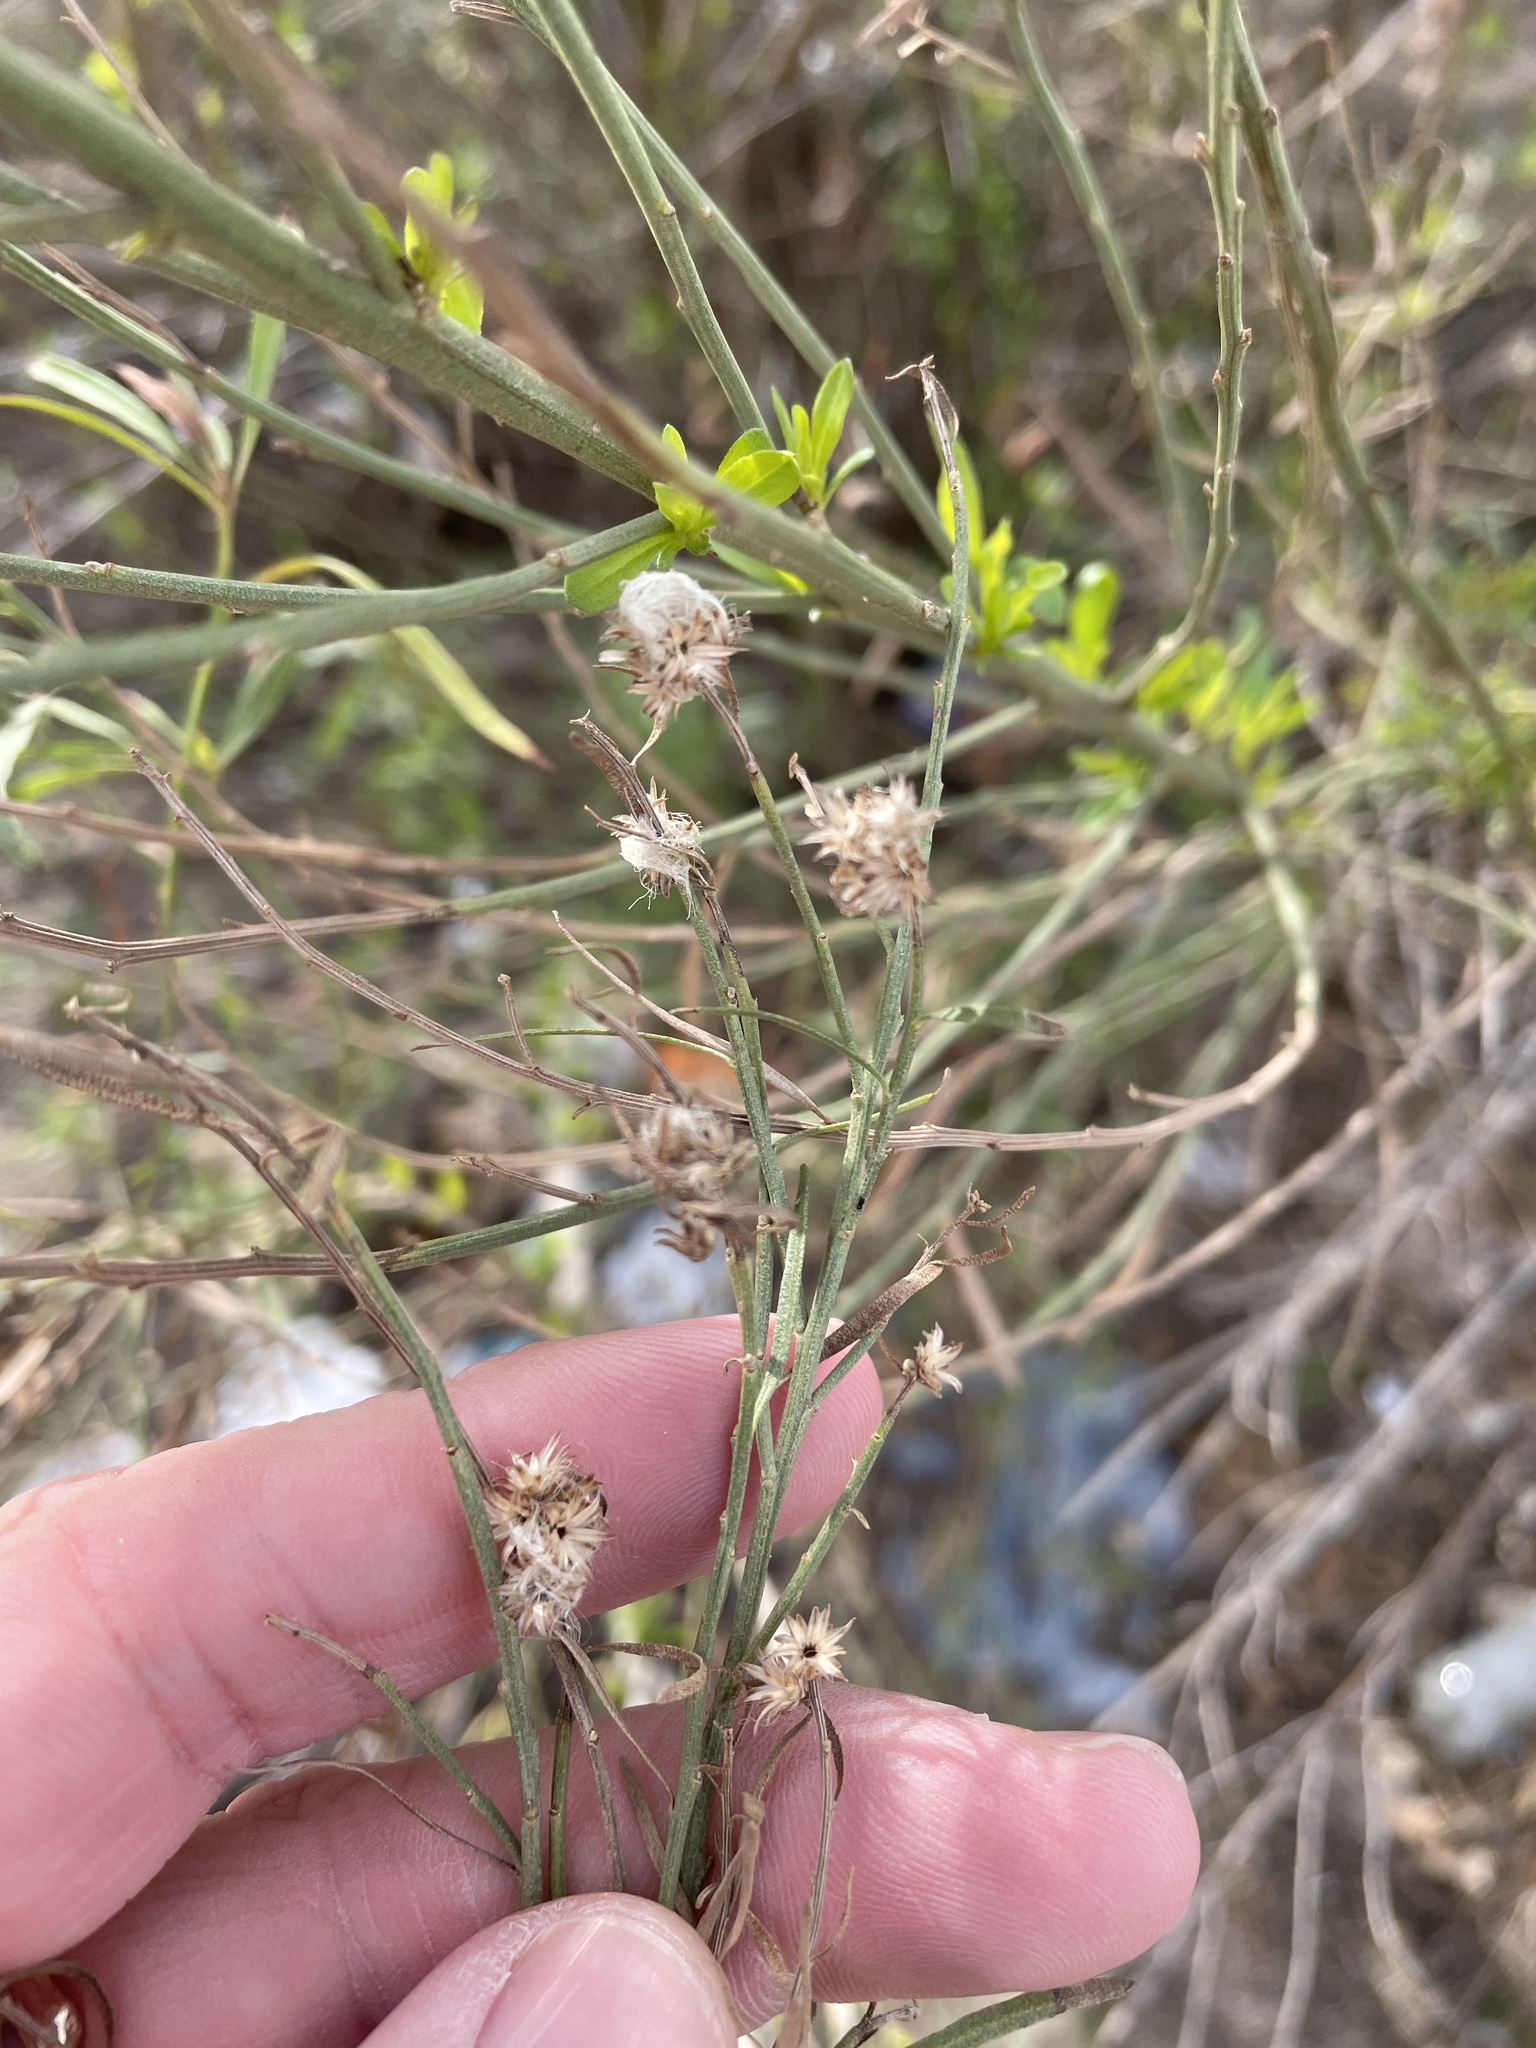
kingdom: Plantae
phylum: Tracheophyta
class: Magnoliopsida
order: Asterales
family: Asteraceae
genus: Baccharis
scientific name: Baccharis neglecta
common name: Roosevelt-weed
